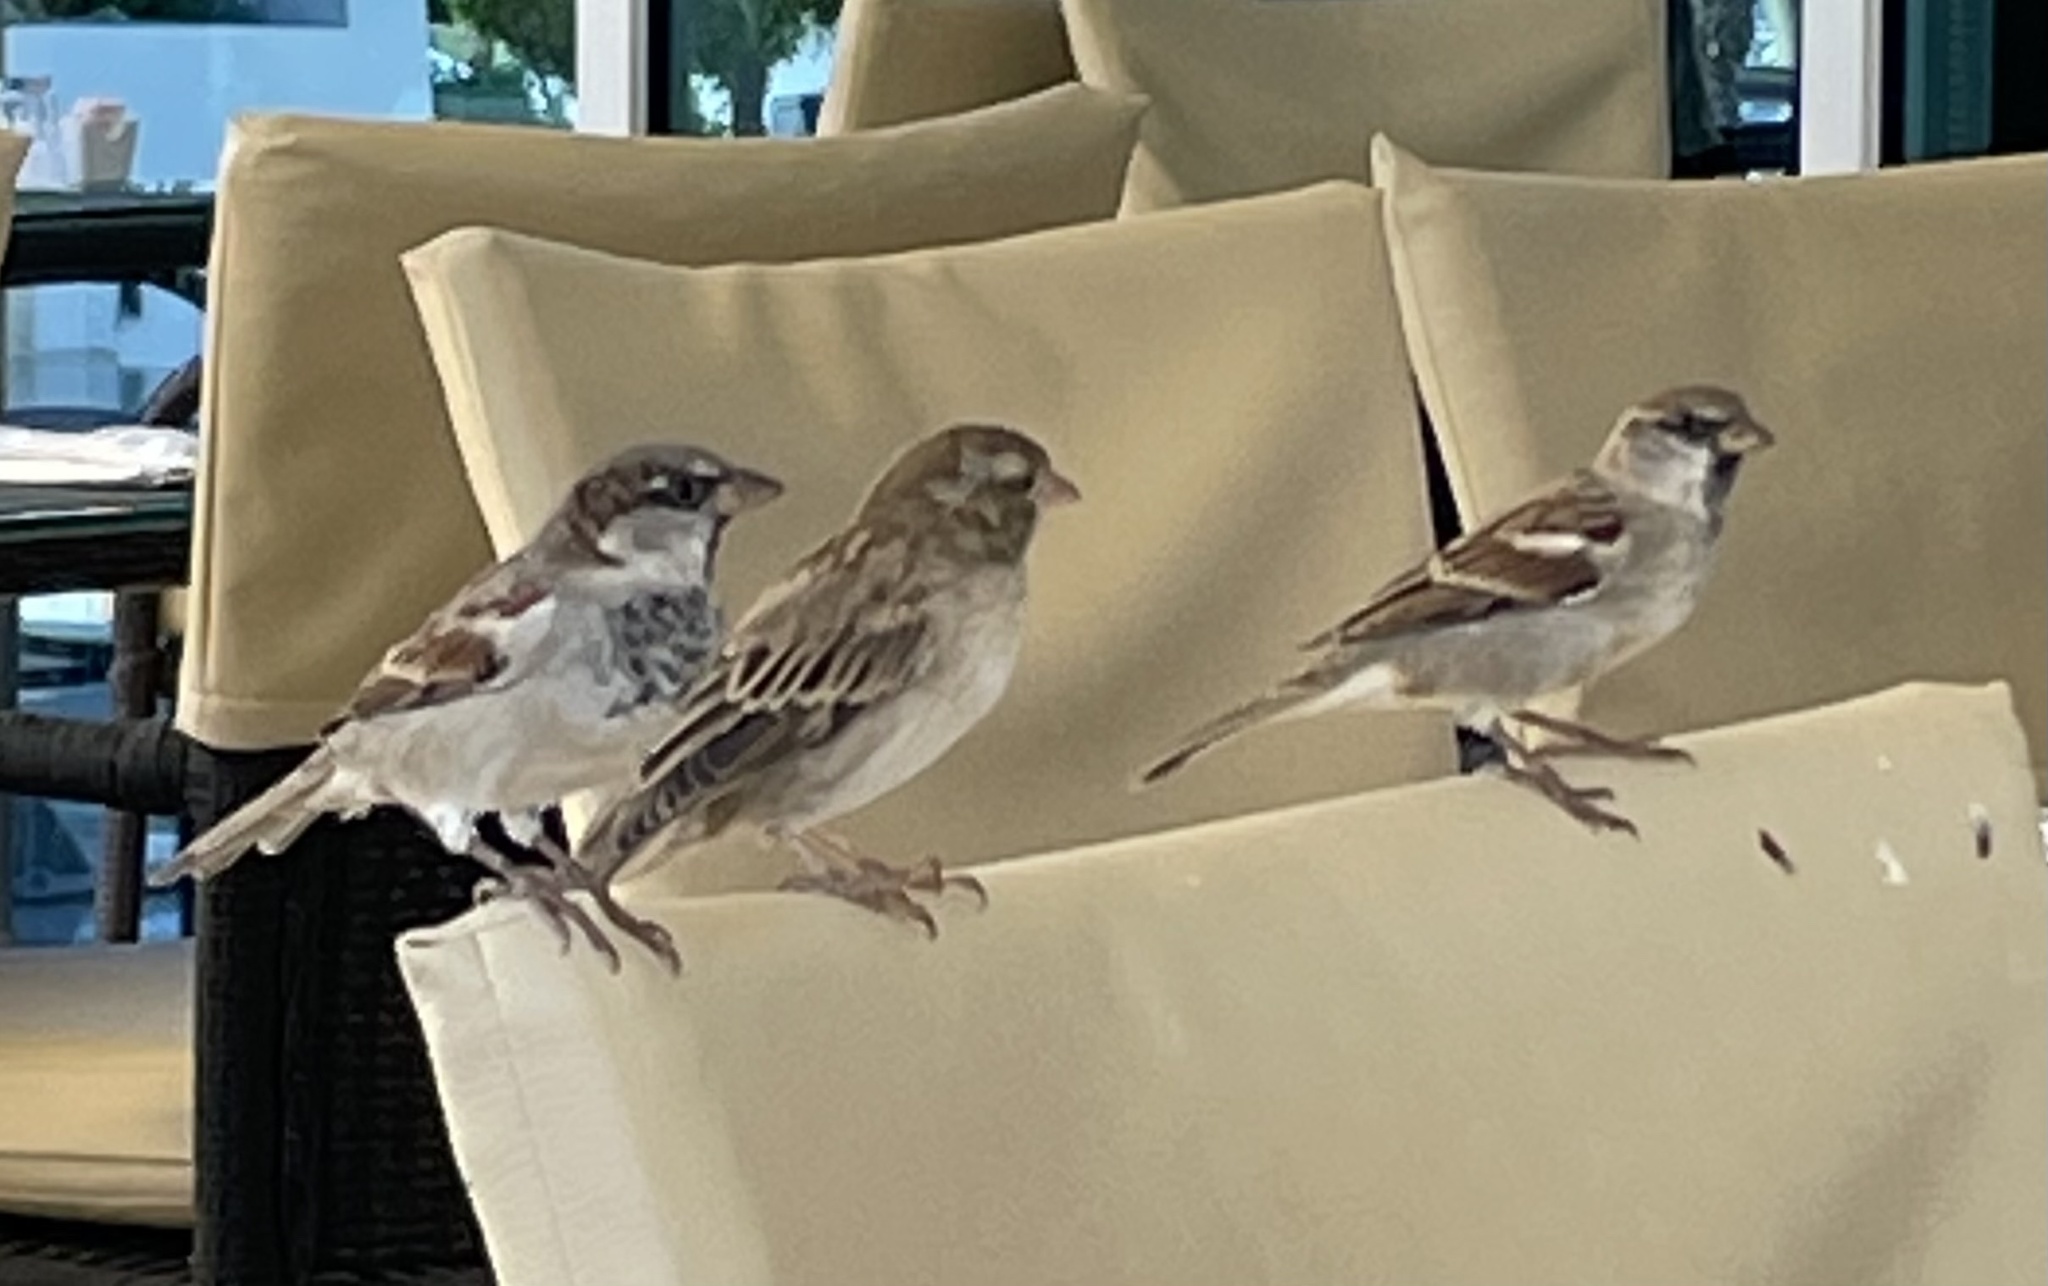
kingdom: Animalia
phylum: Chordata
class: Aves
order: Passeriformes
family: Passeridae
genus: Passer
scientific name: Passer domesticus
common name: House sparrow
